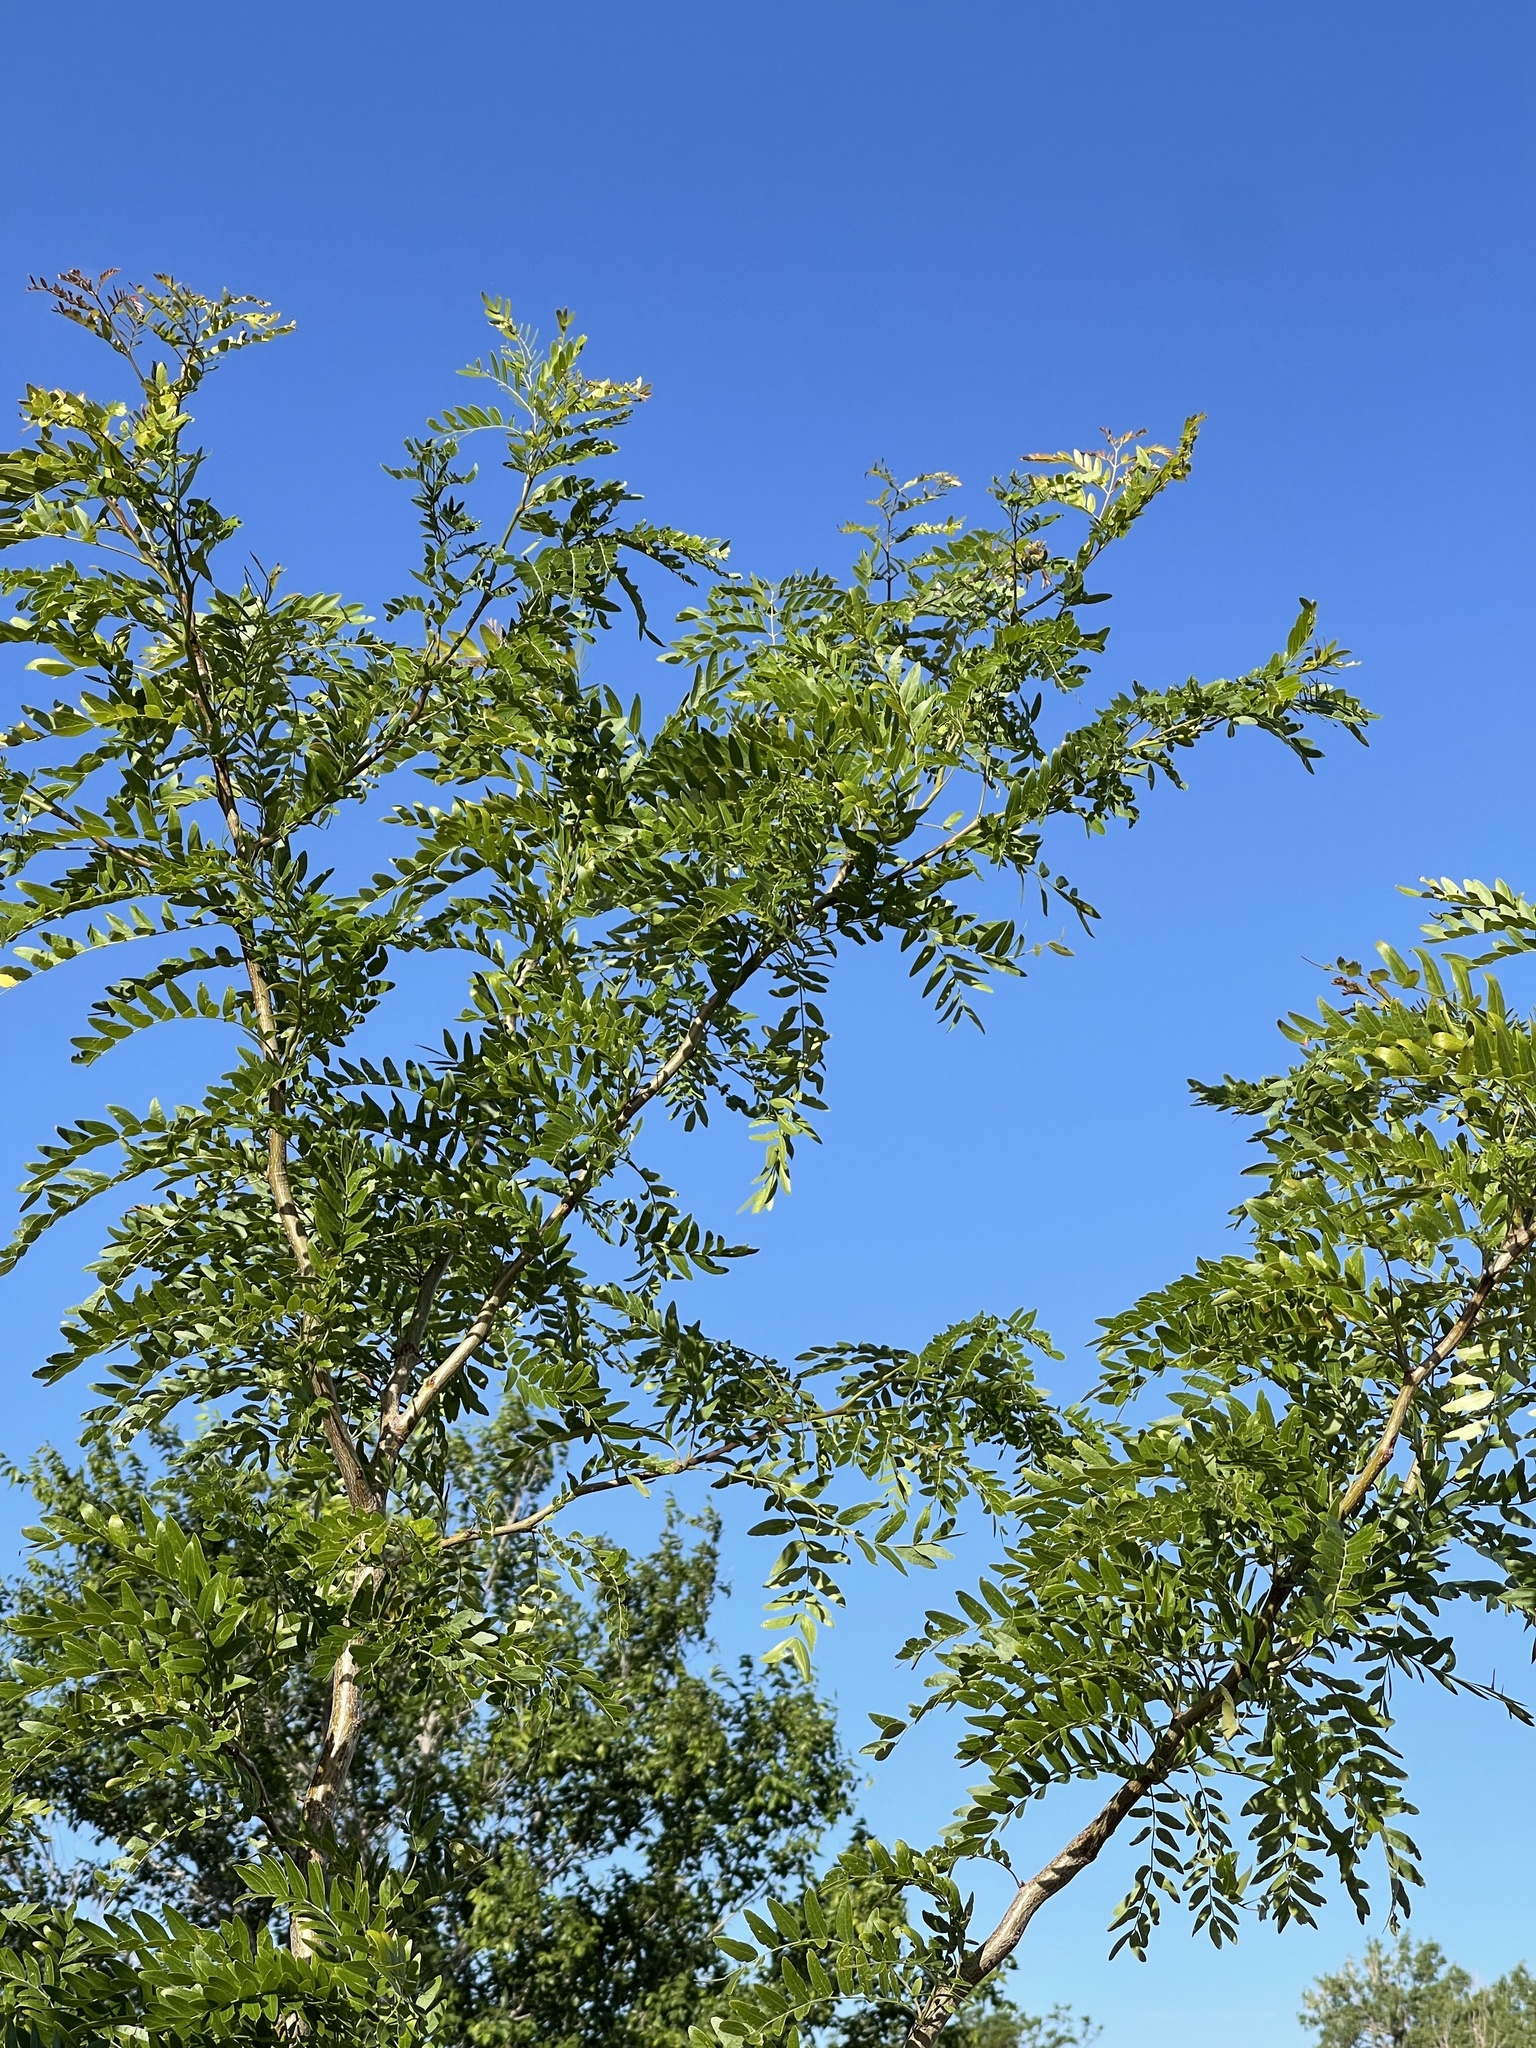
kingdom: Plantae
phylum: Tracheophyta
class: Magnoliopsida
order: Fabales
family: Fabaceae
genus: Gleditsia
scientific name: Gleditsia triacanthos
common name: Common honeylocust
